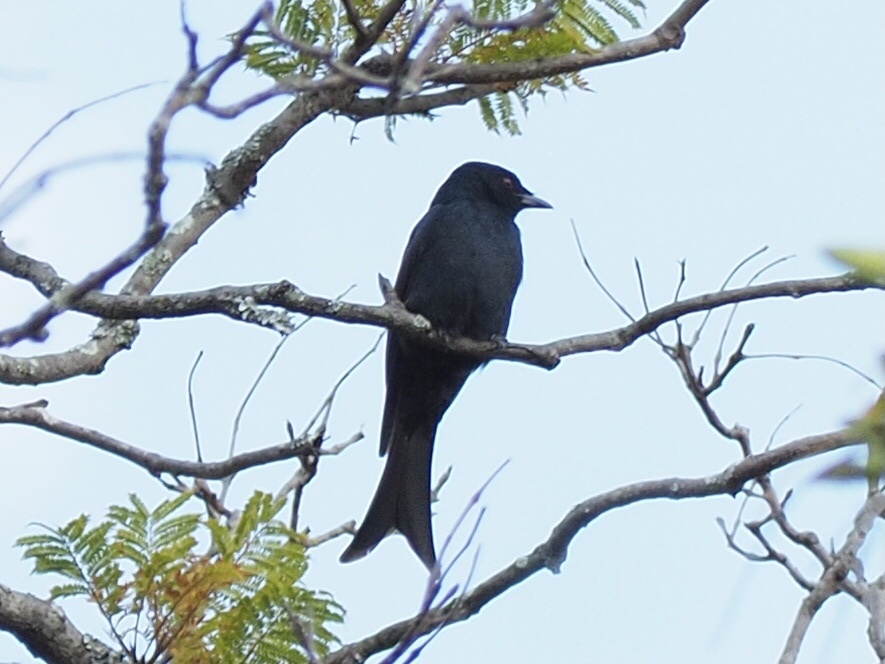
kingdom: Animalia
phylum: Chordata
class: Aves
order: Passeriformes
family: Dicruridae
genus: Dicrurus
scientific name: Dicrurus adsimilis
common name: Fork-tailed drongo
